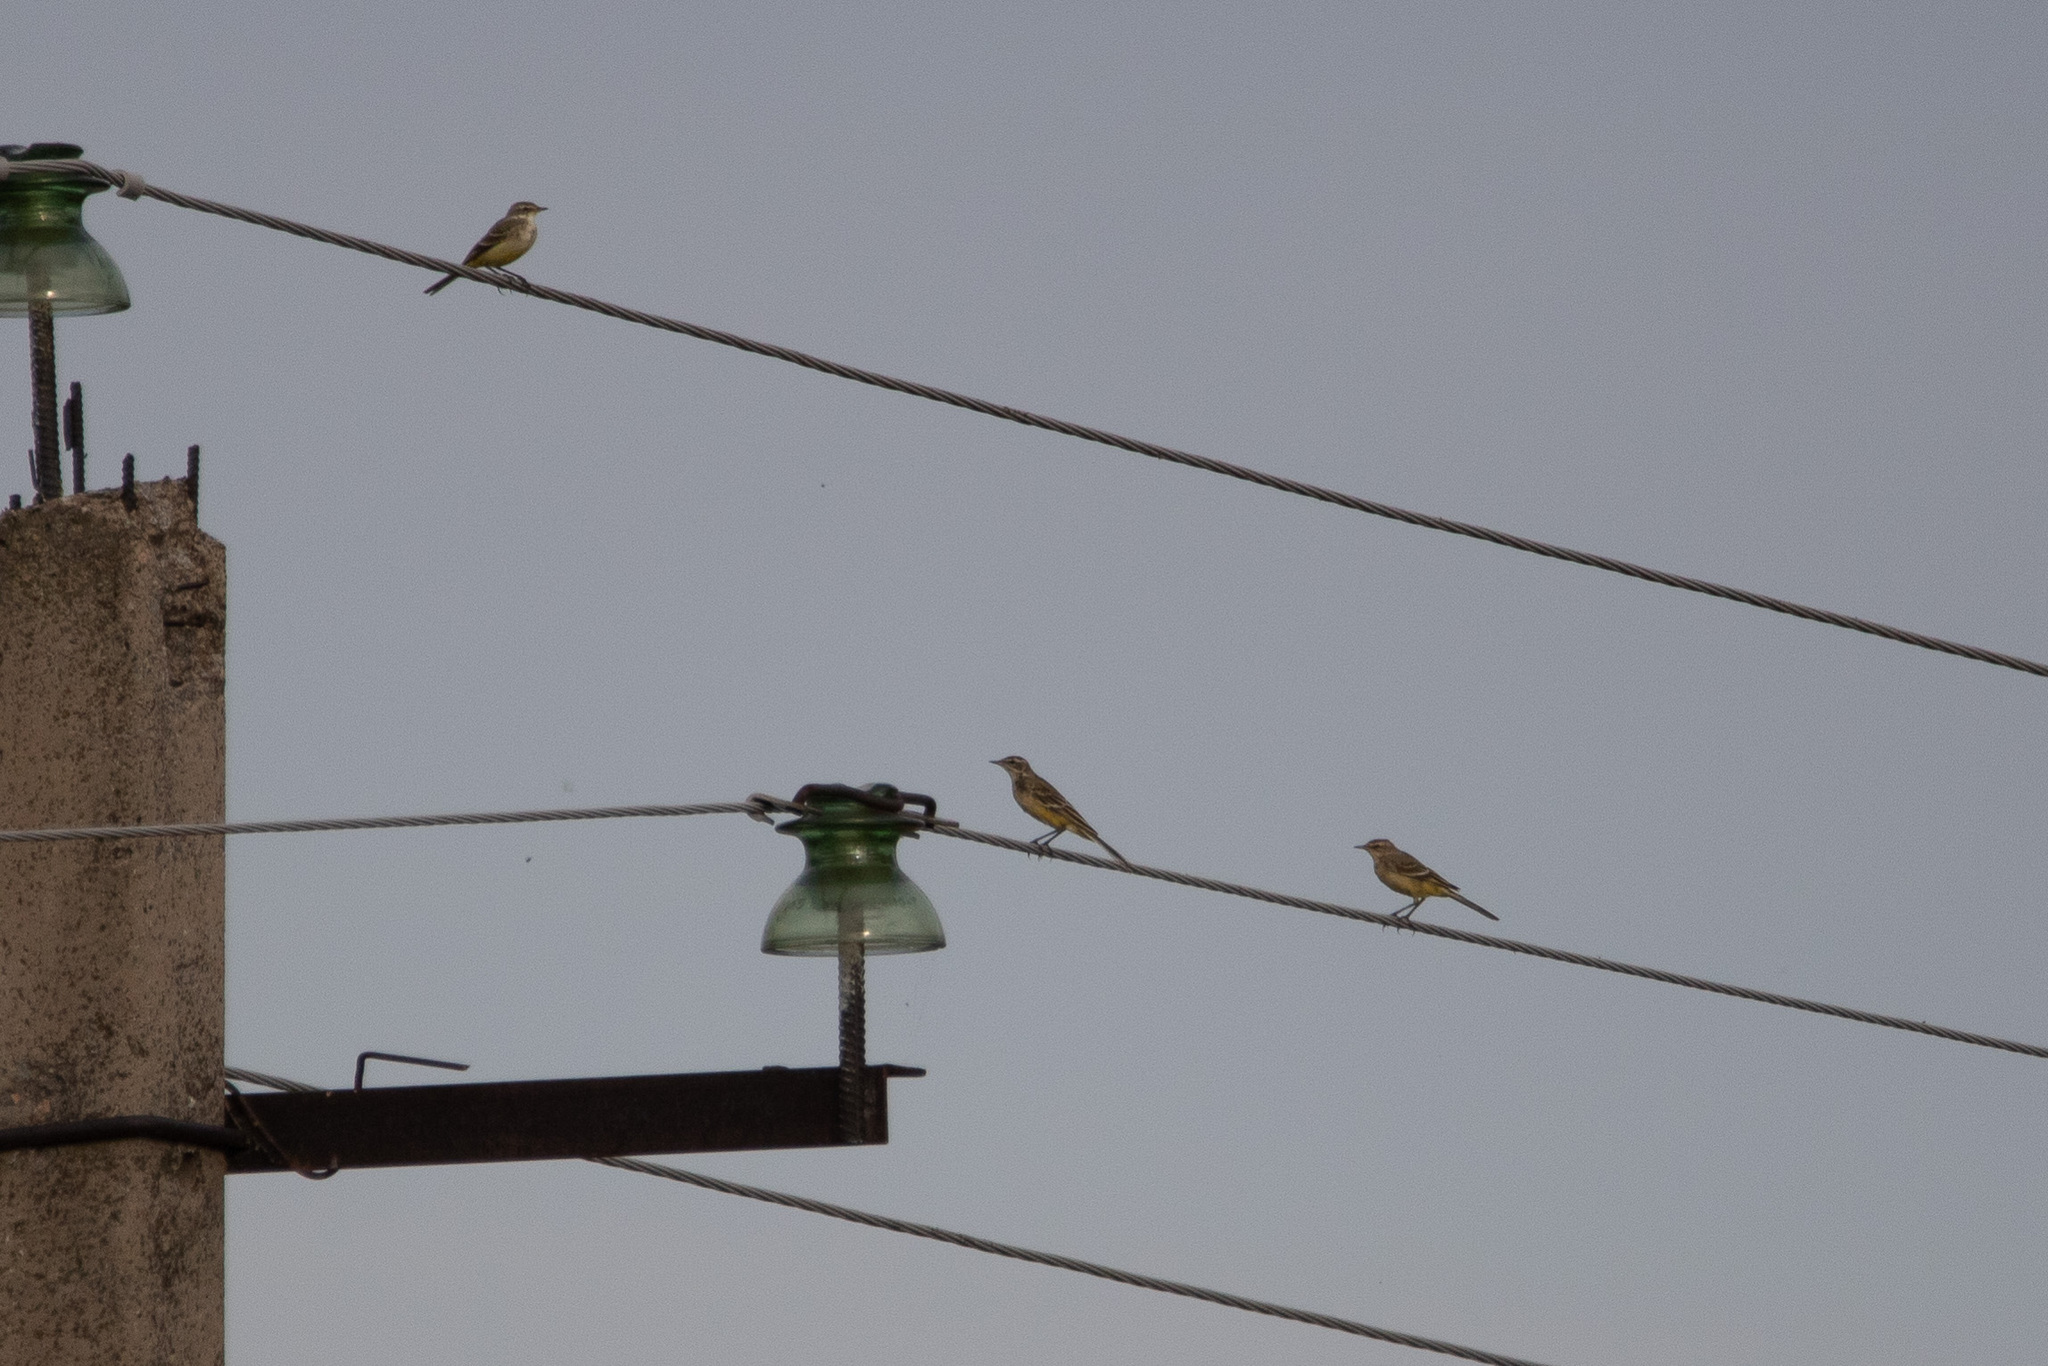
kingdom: Animalia
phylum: Chordata
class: Aves
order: Passeriformes
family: Motacillidae
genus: Motacilla
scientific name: Motacilla flava
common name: Western yellow wagtail
